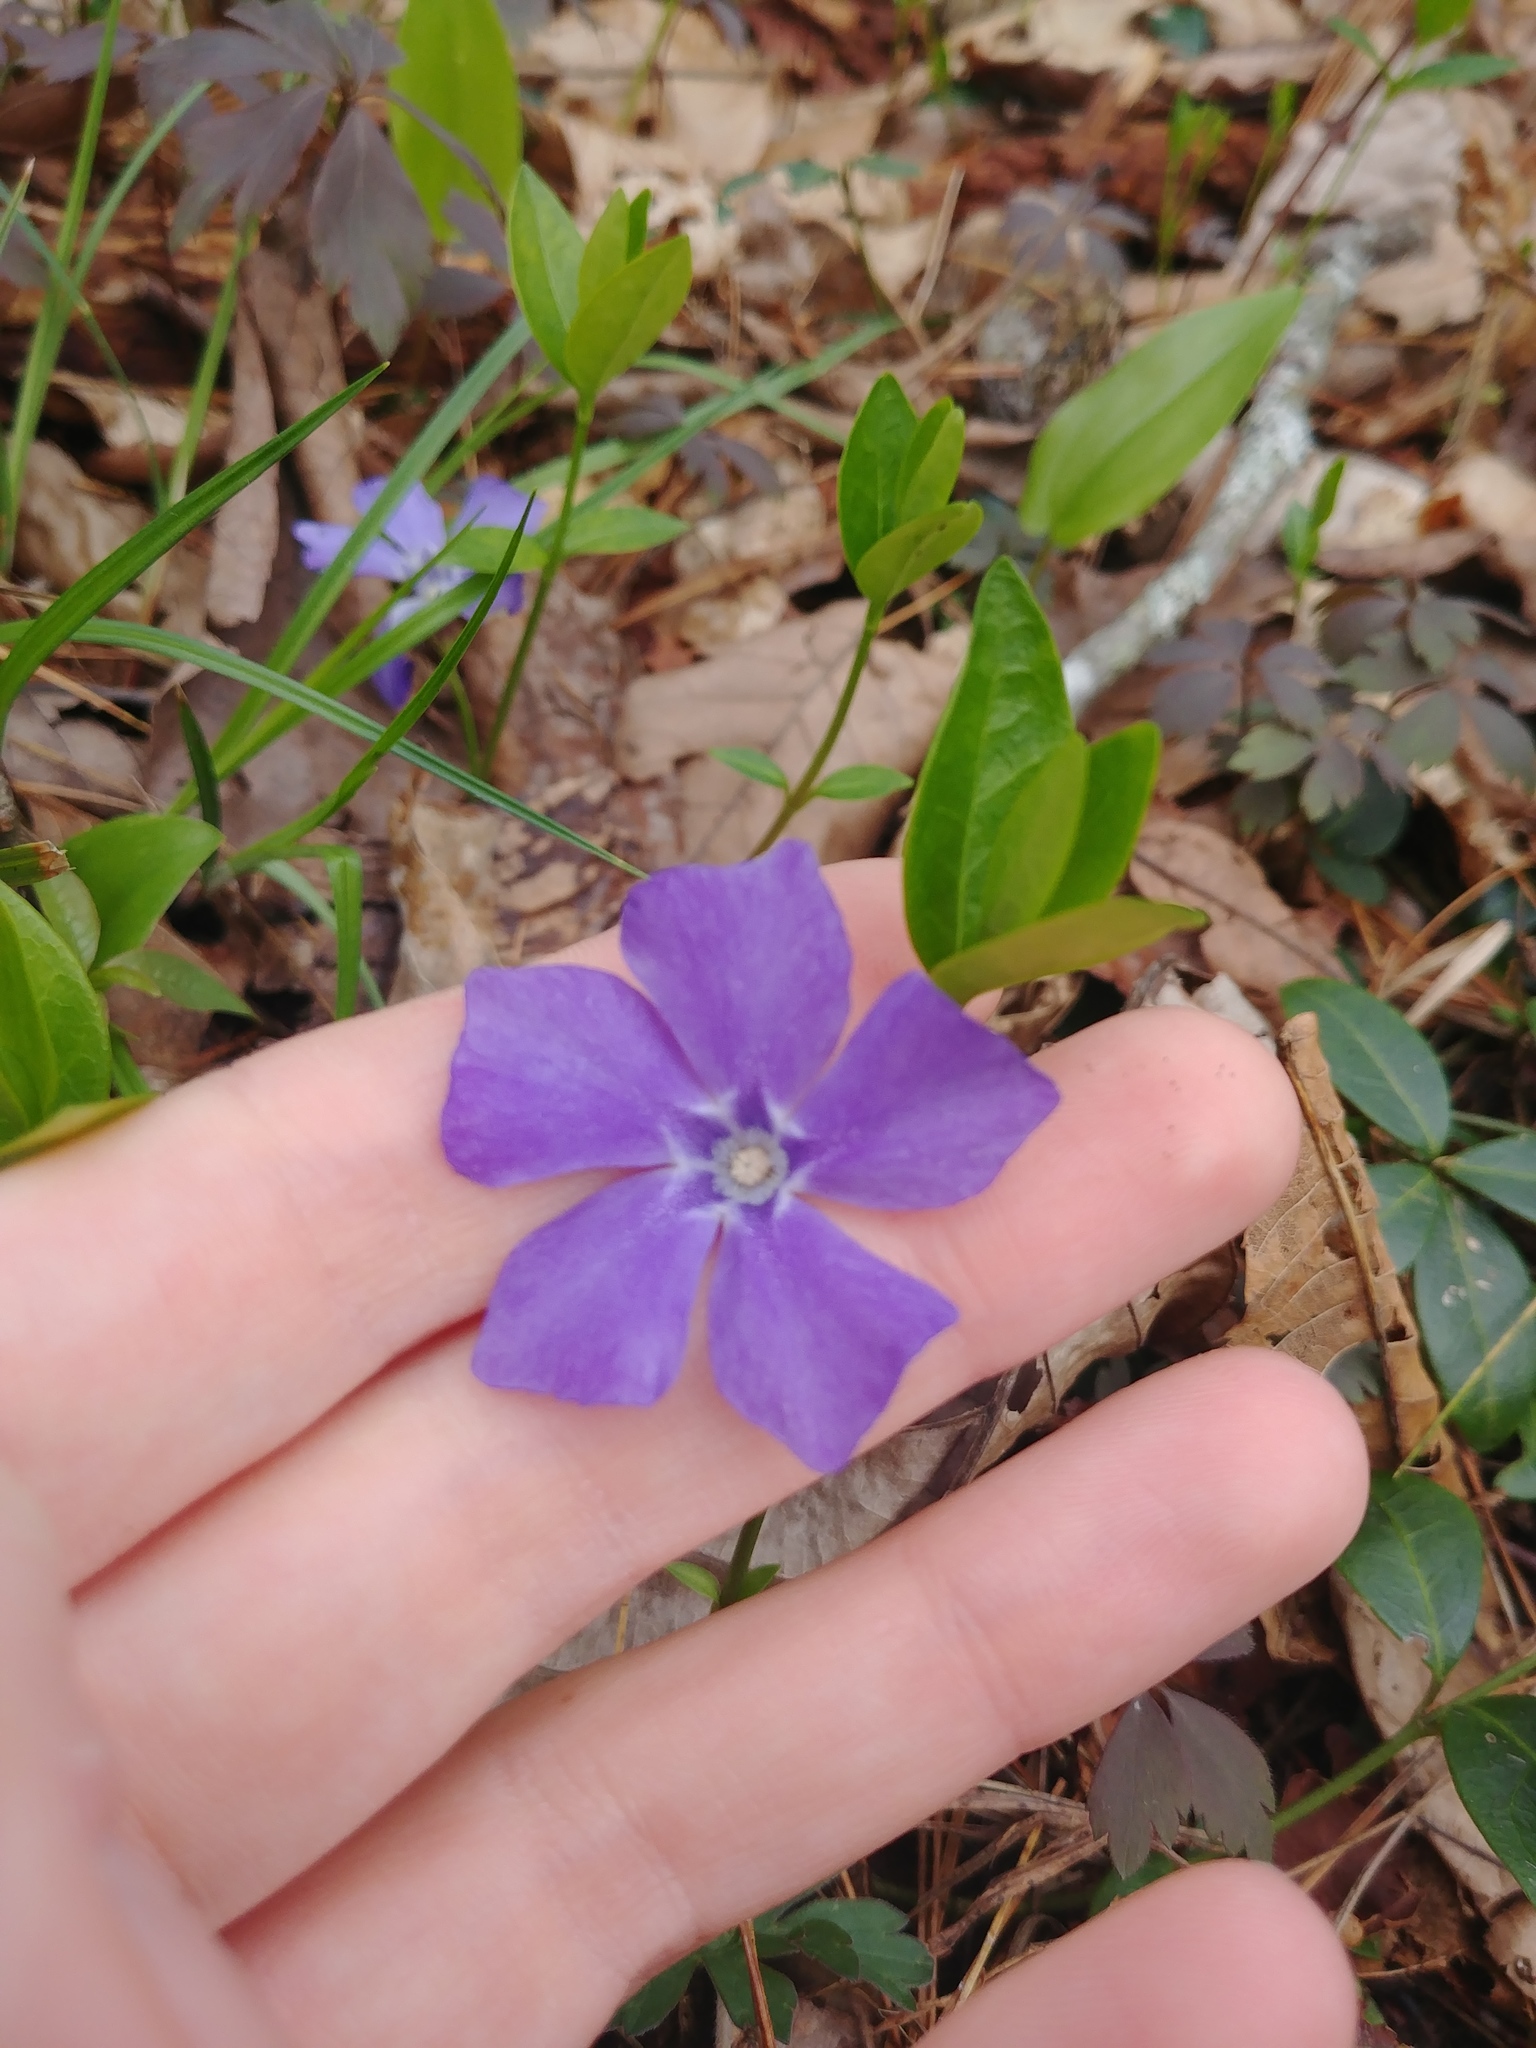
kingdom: Plantae
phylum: Tracheophyta
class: Magnoliopsida
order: Gentianales
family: Apocynaceae
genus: Vinca
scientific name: Vinca minor
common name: Lesser periwinkle
